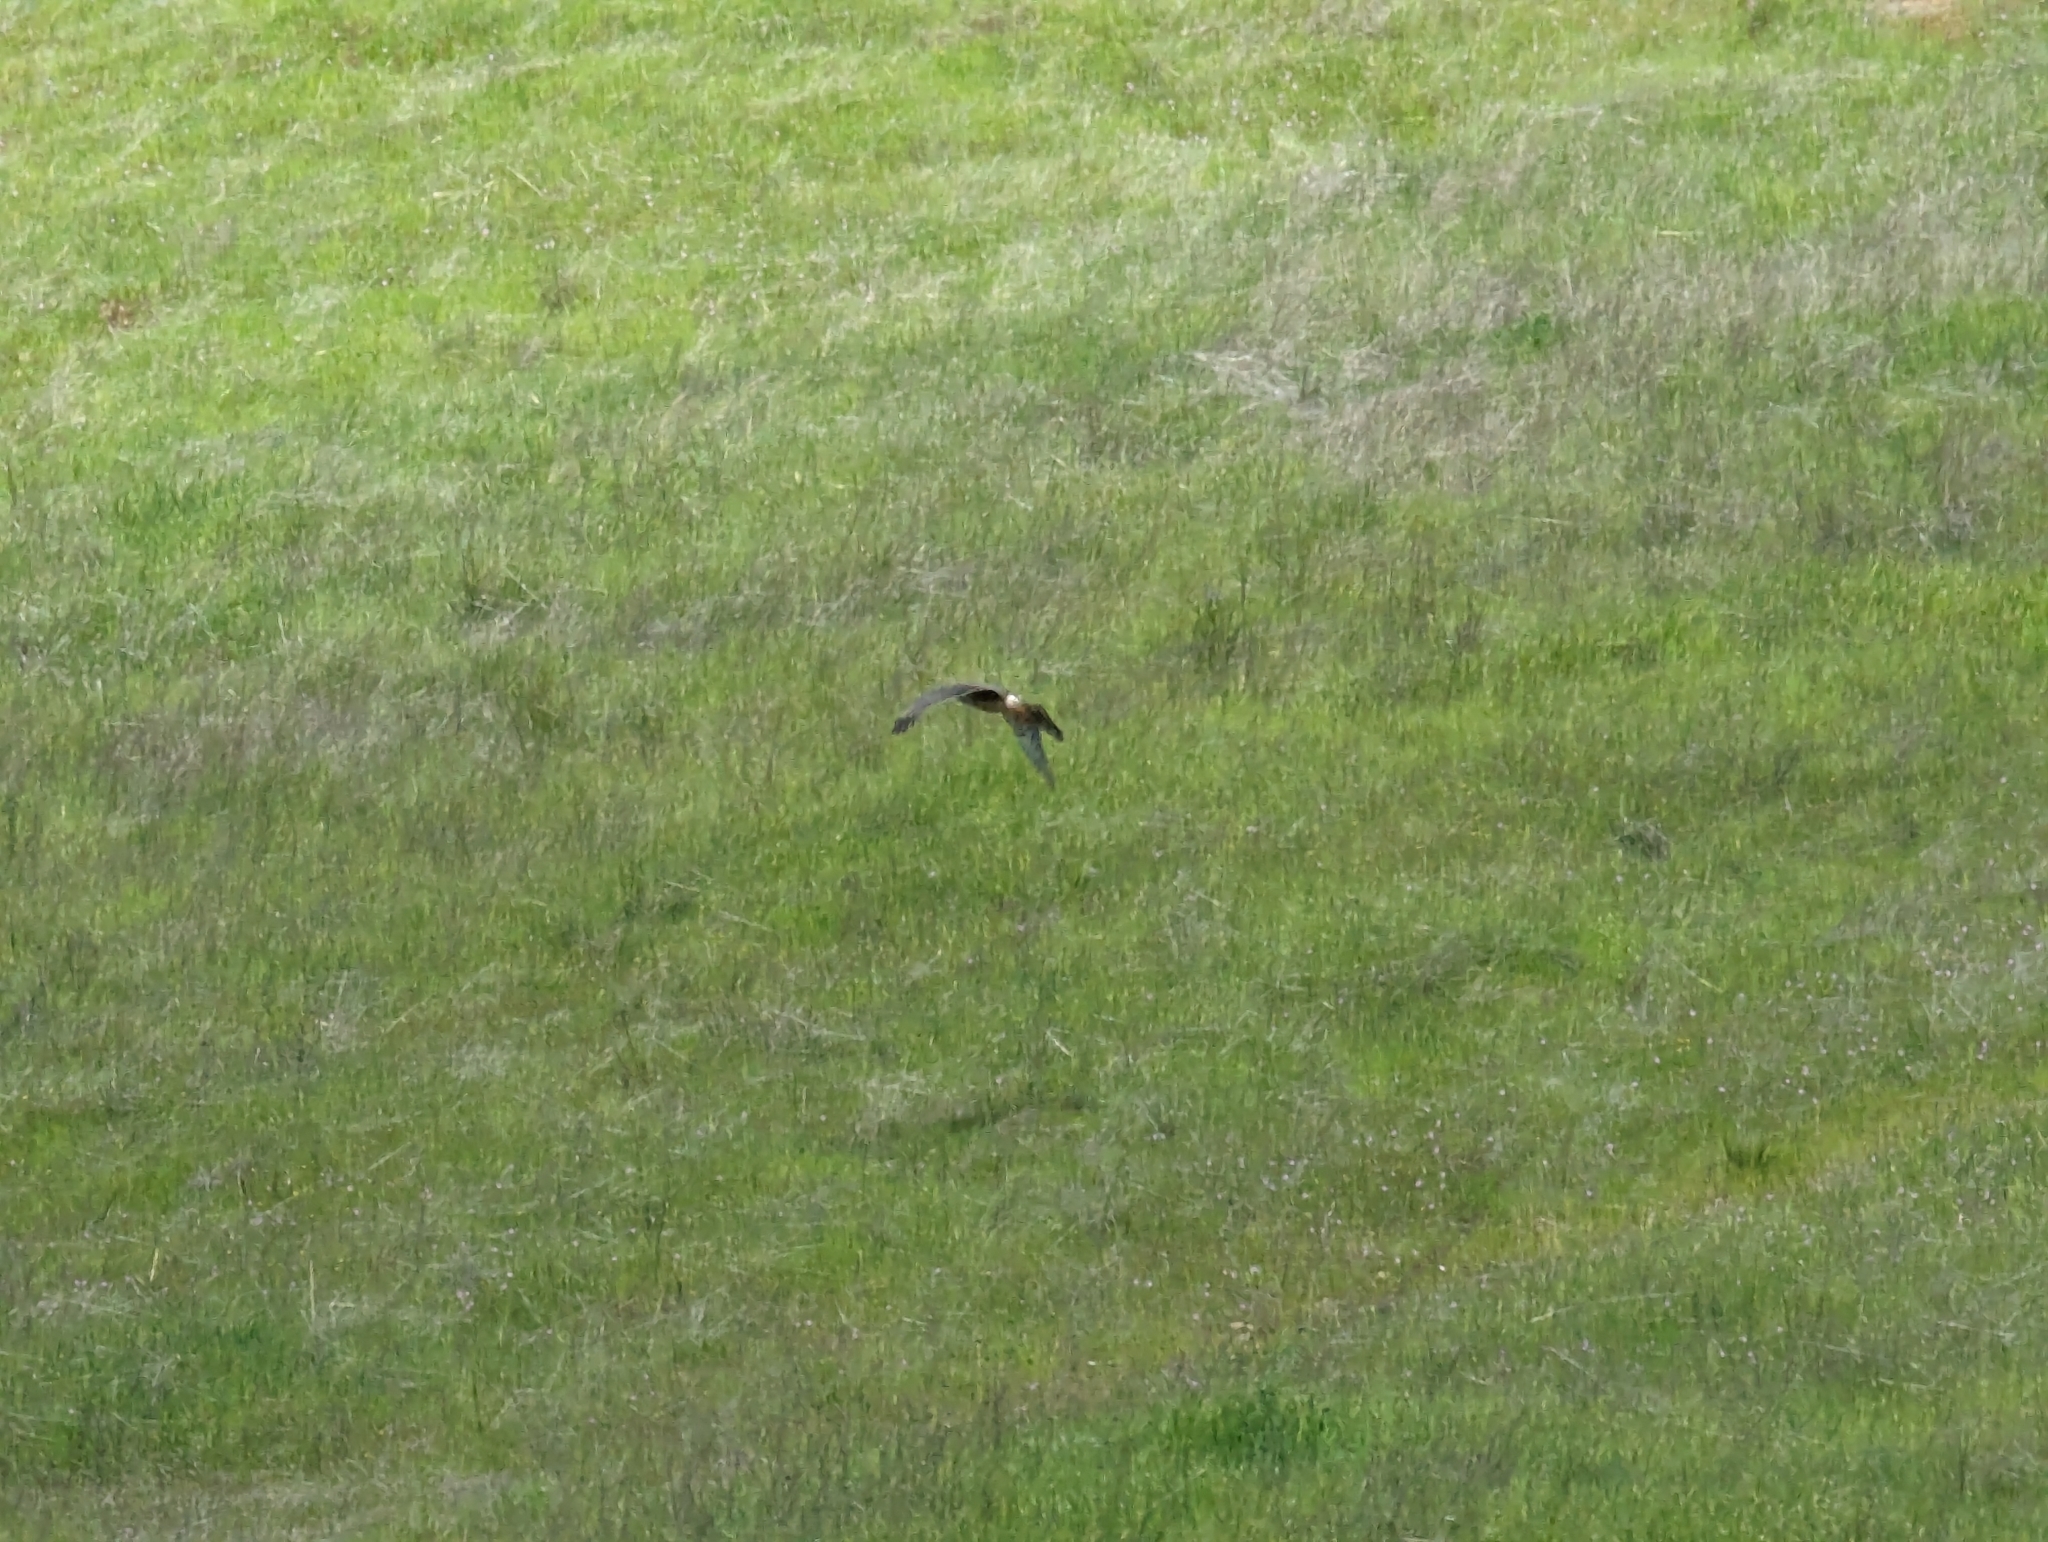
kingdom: Animalia
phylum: Chordata
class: Aves
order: Accipitriformes
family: Accipitridae
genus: Circus
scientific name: Circus cyaneus
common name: Hen harrier
